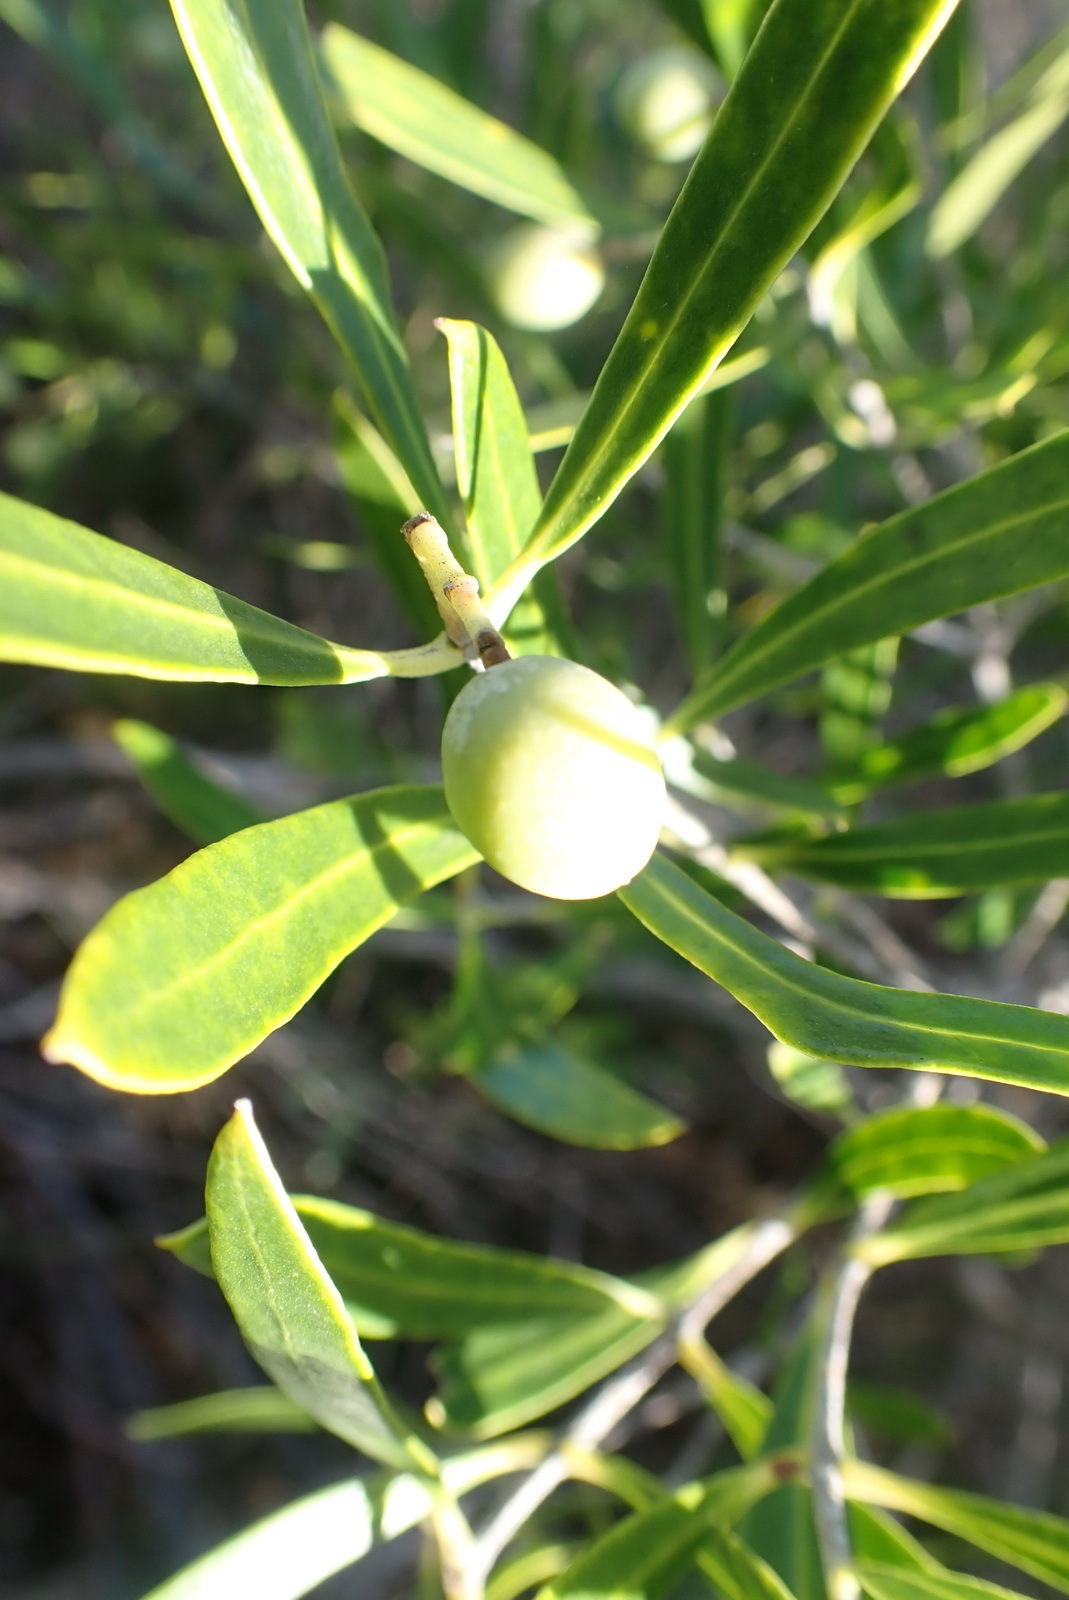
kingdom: Plantae
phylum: Tracheophyta
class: Magnoliopsida
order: Lamiales
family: Oleaceae
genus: Olea
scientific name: Olea exasperata
